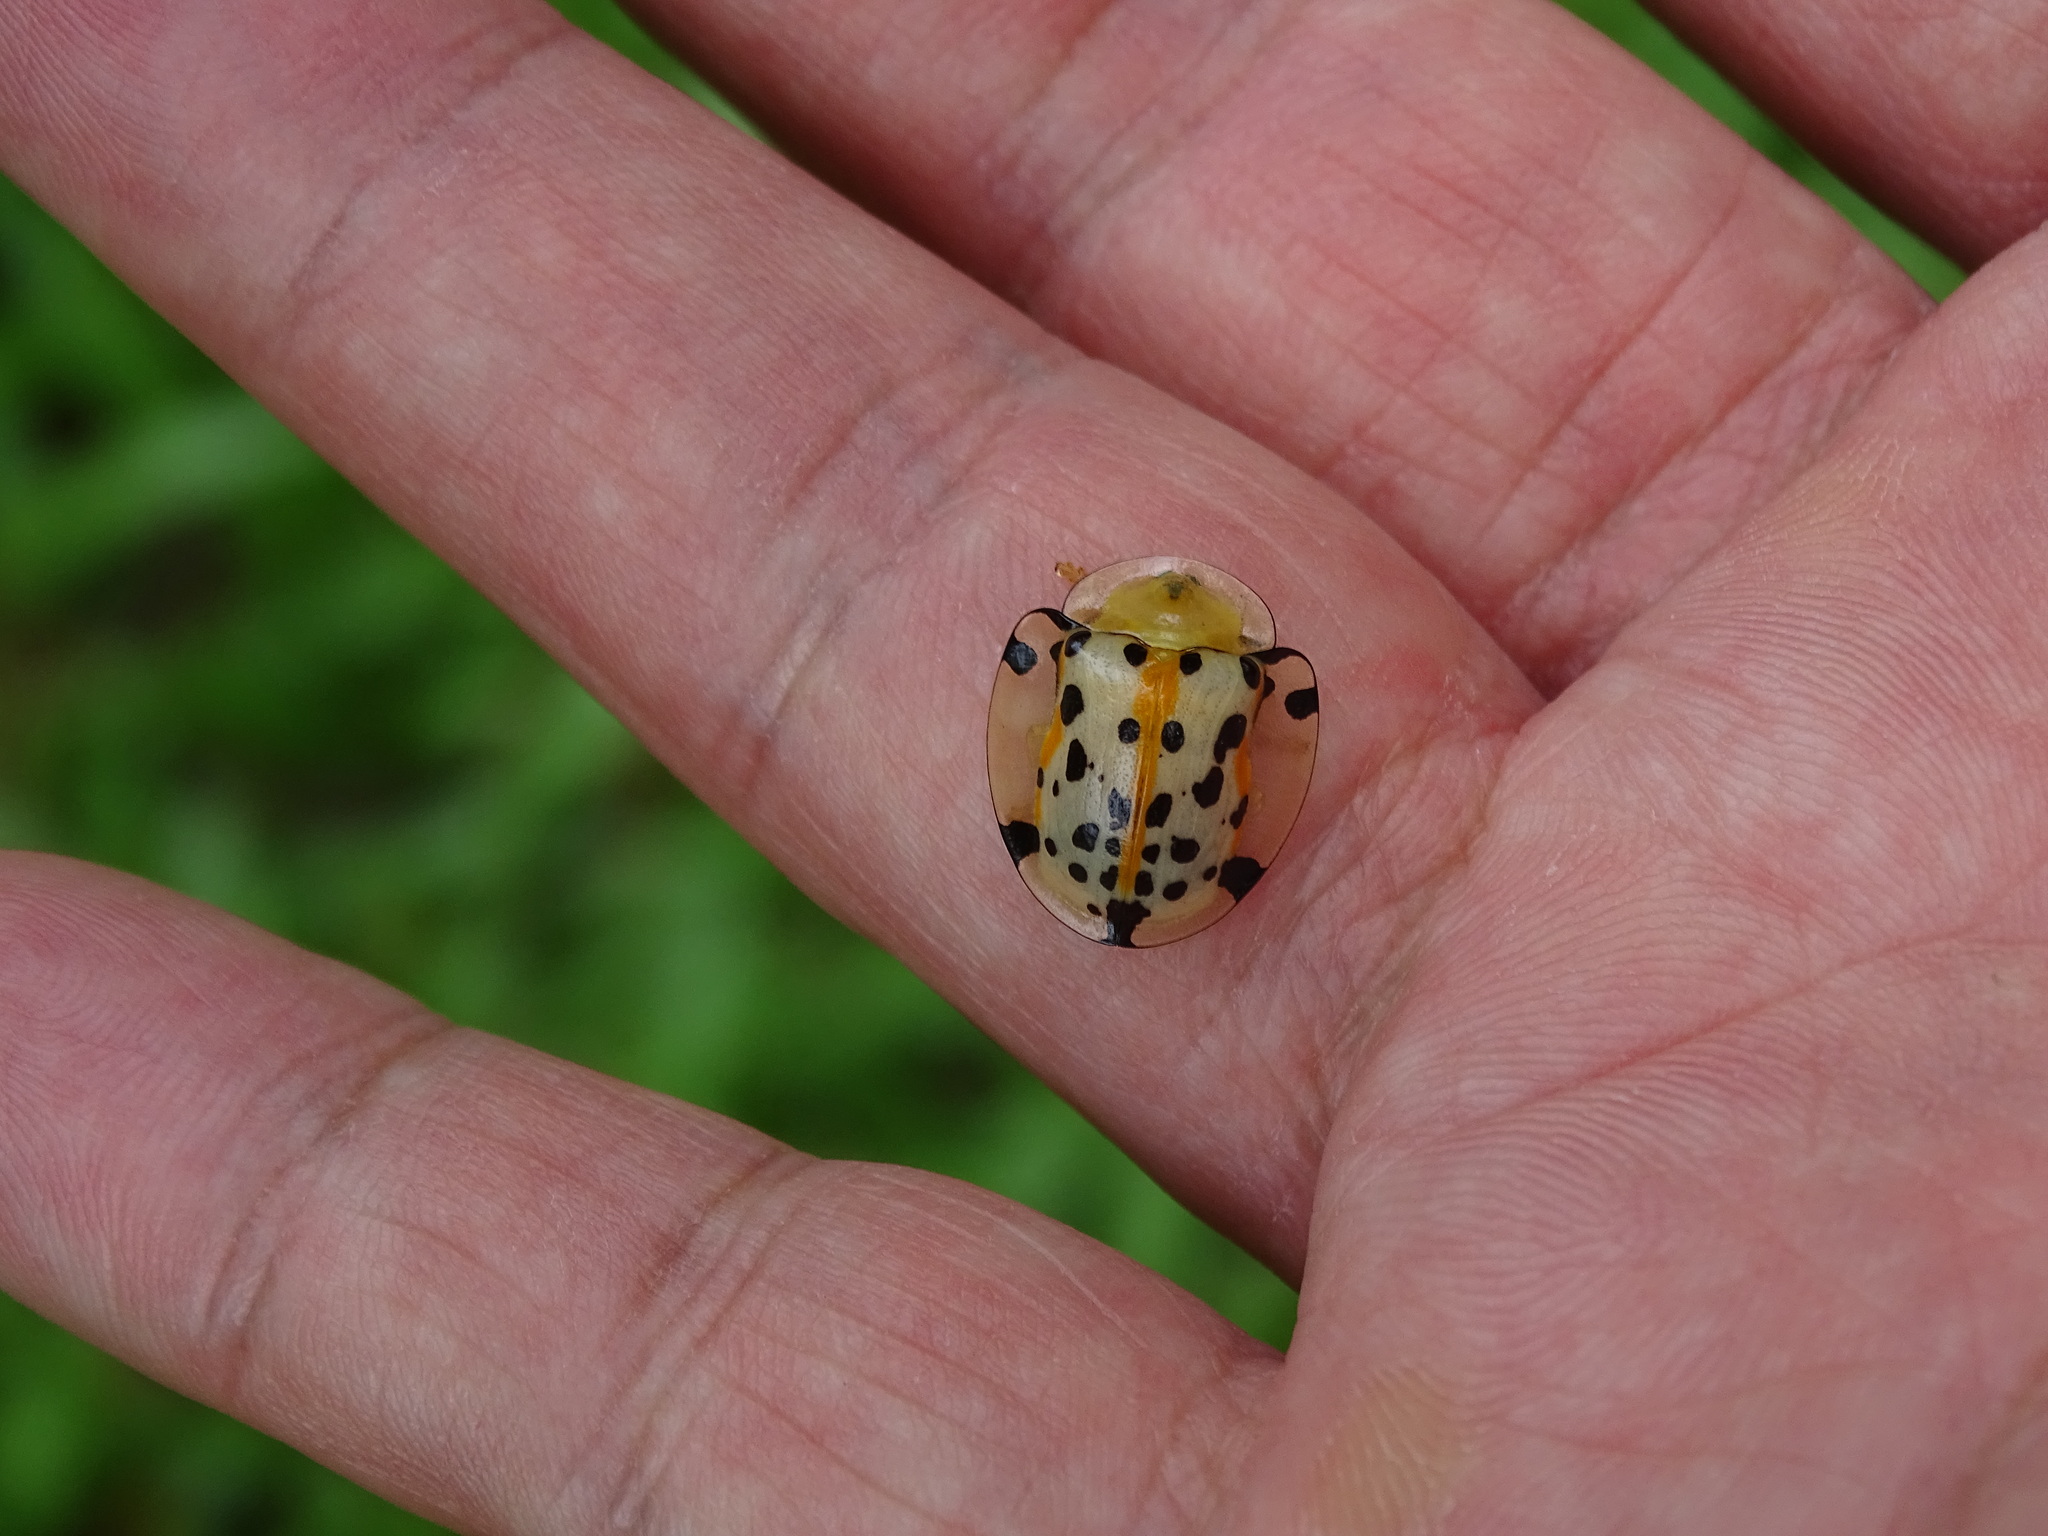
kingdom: Animalia
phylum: Arthropoda
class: Insecta
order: Coleoptera
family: Chrysomelidae
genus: Aspidimorpha
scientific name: Aspidimorpha miliaris
